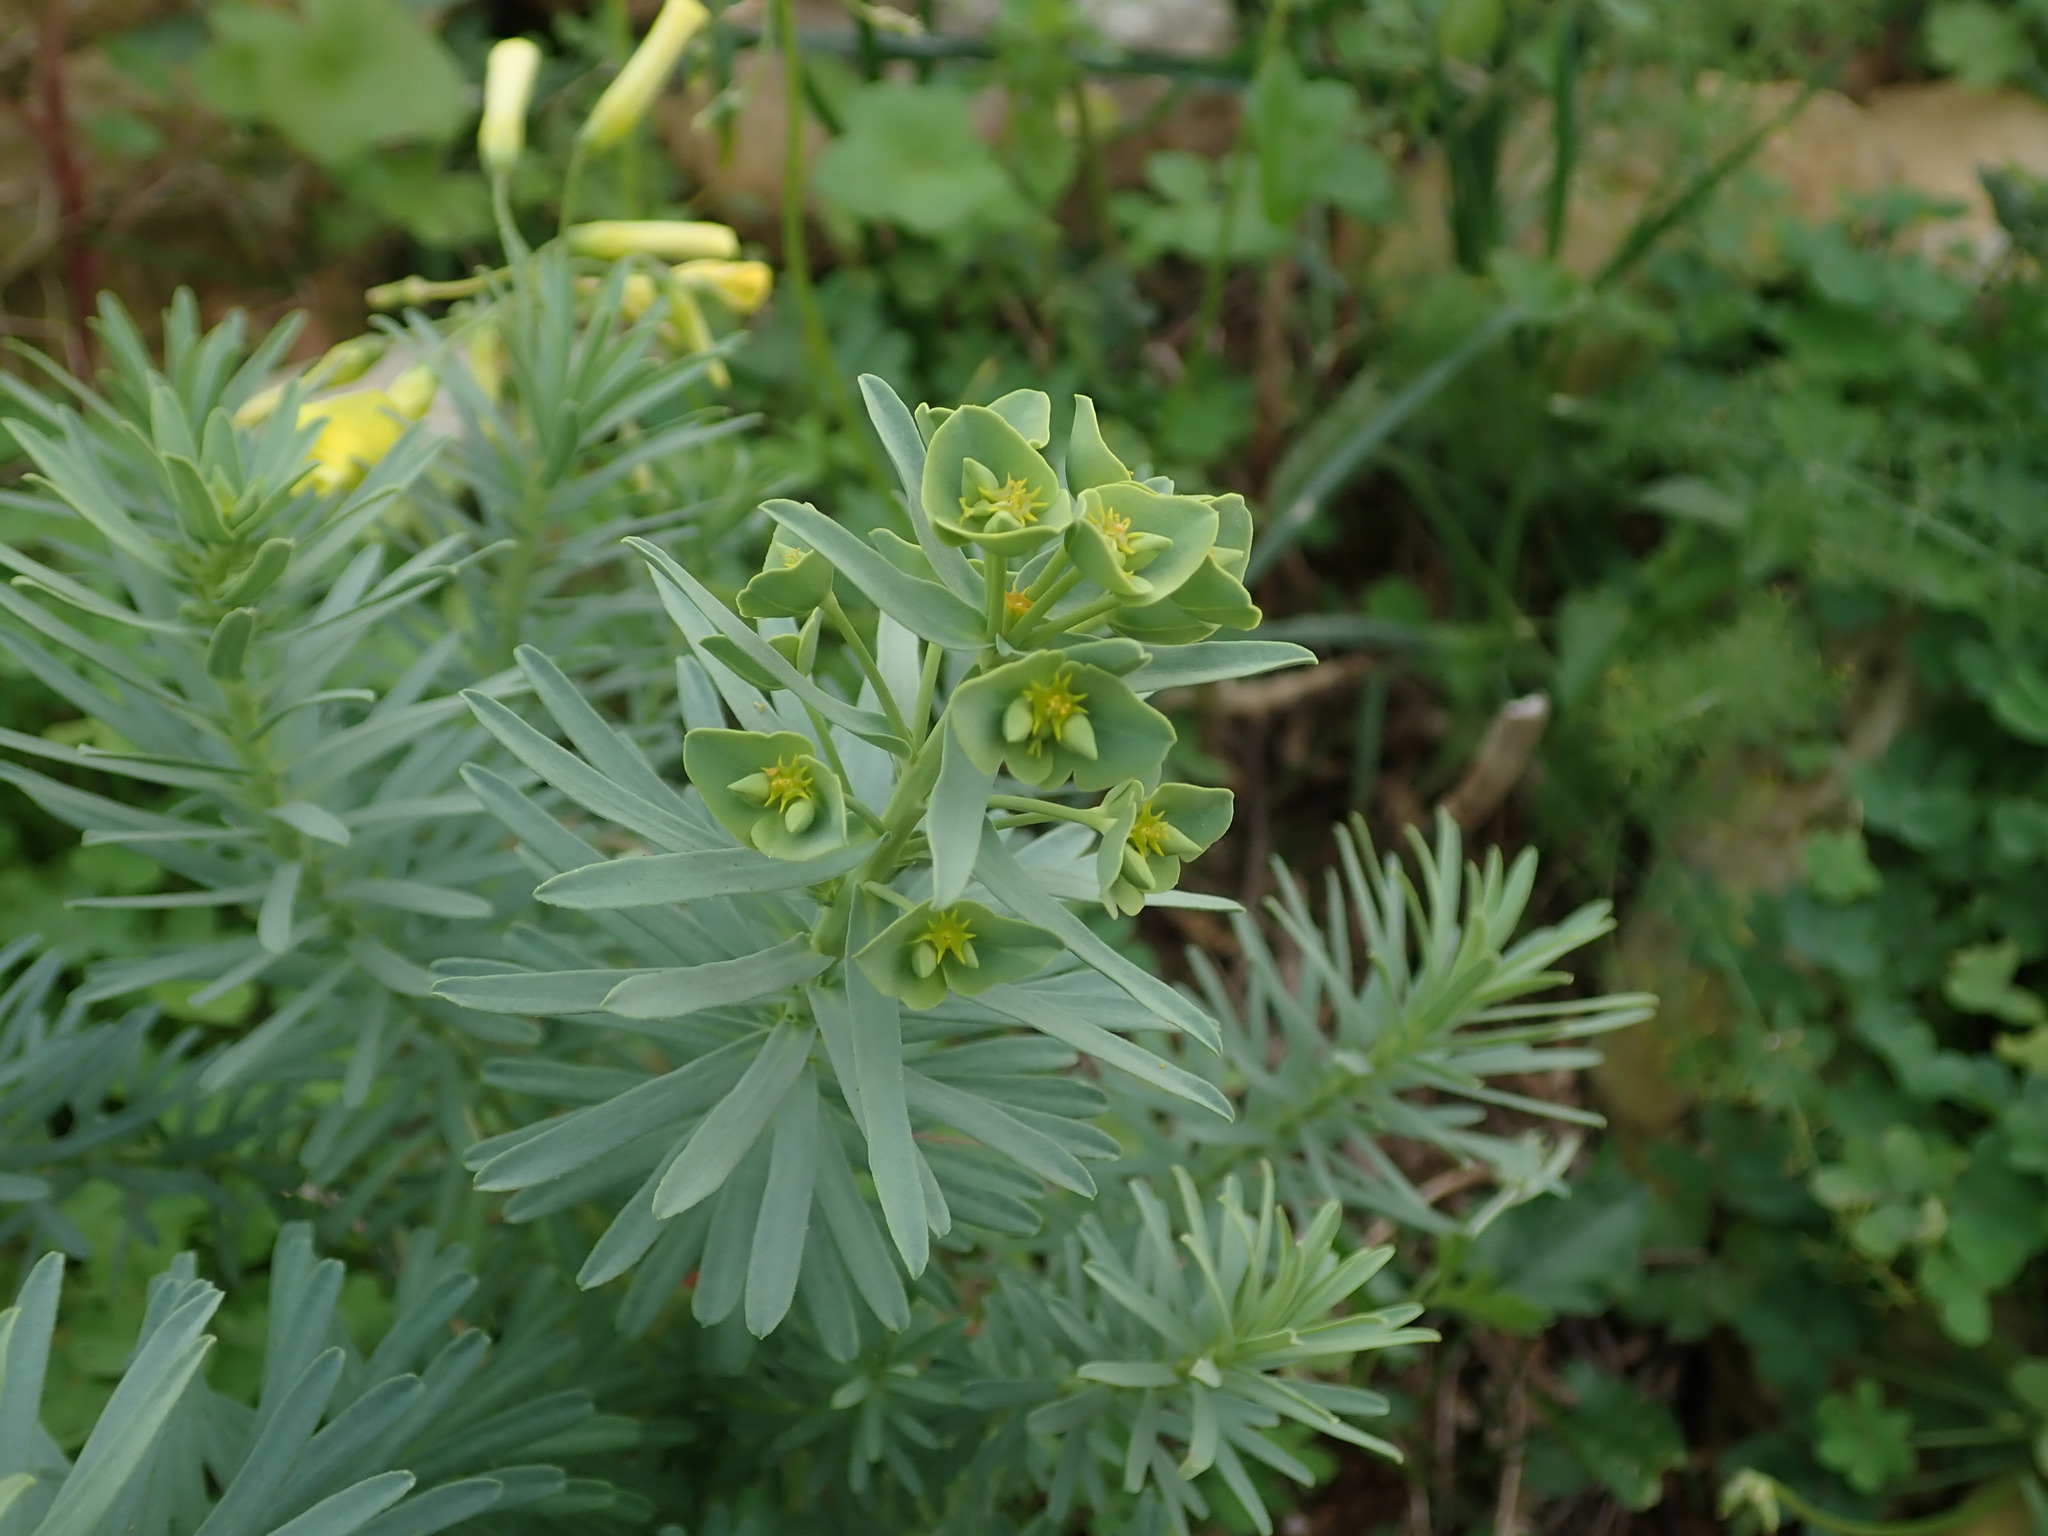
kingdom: Plantae
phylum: Tracheophyta
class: Magnoliopsida
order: Malpighiales
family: Euphorbiaceae
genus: Euphorbia
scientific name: Euphorbia segetalis
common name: Corn spurge
